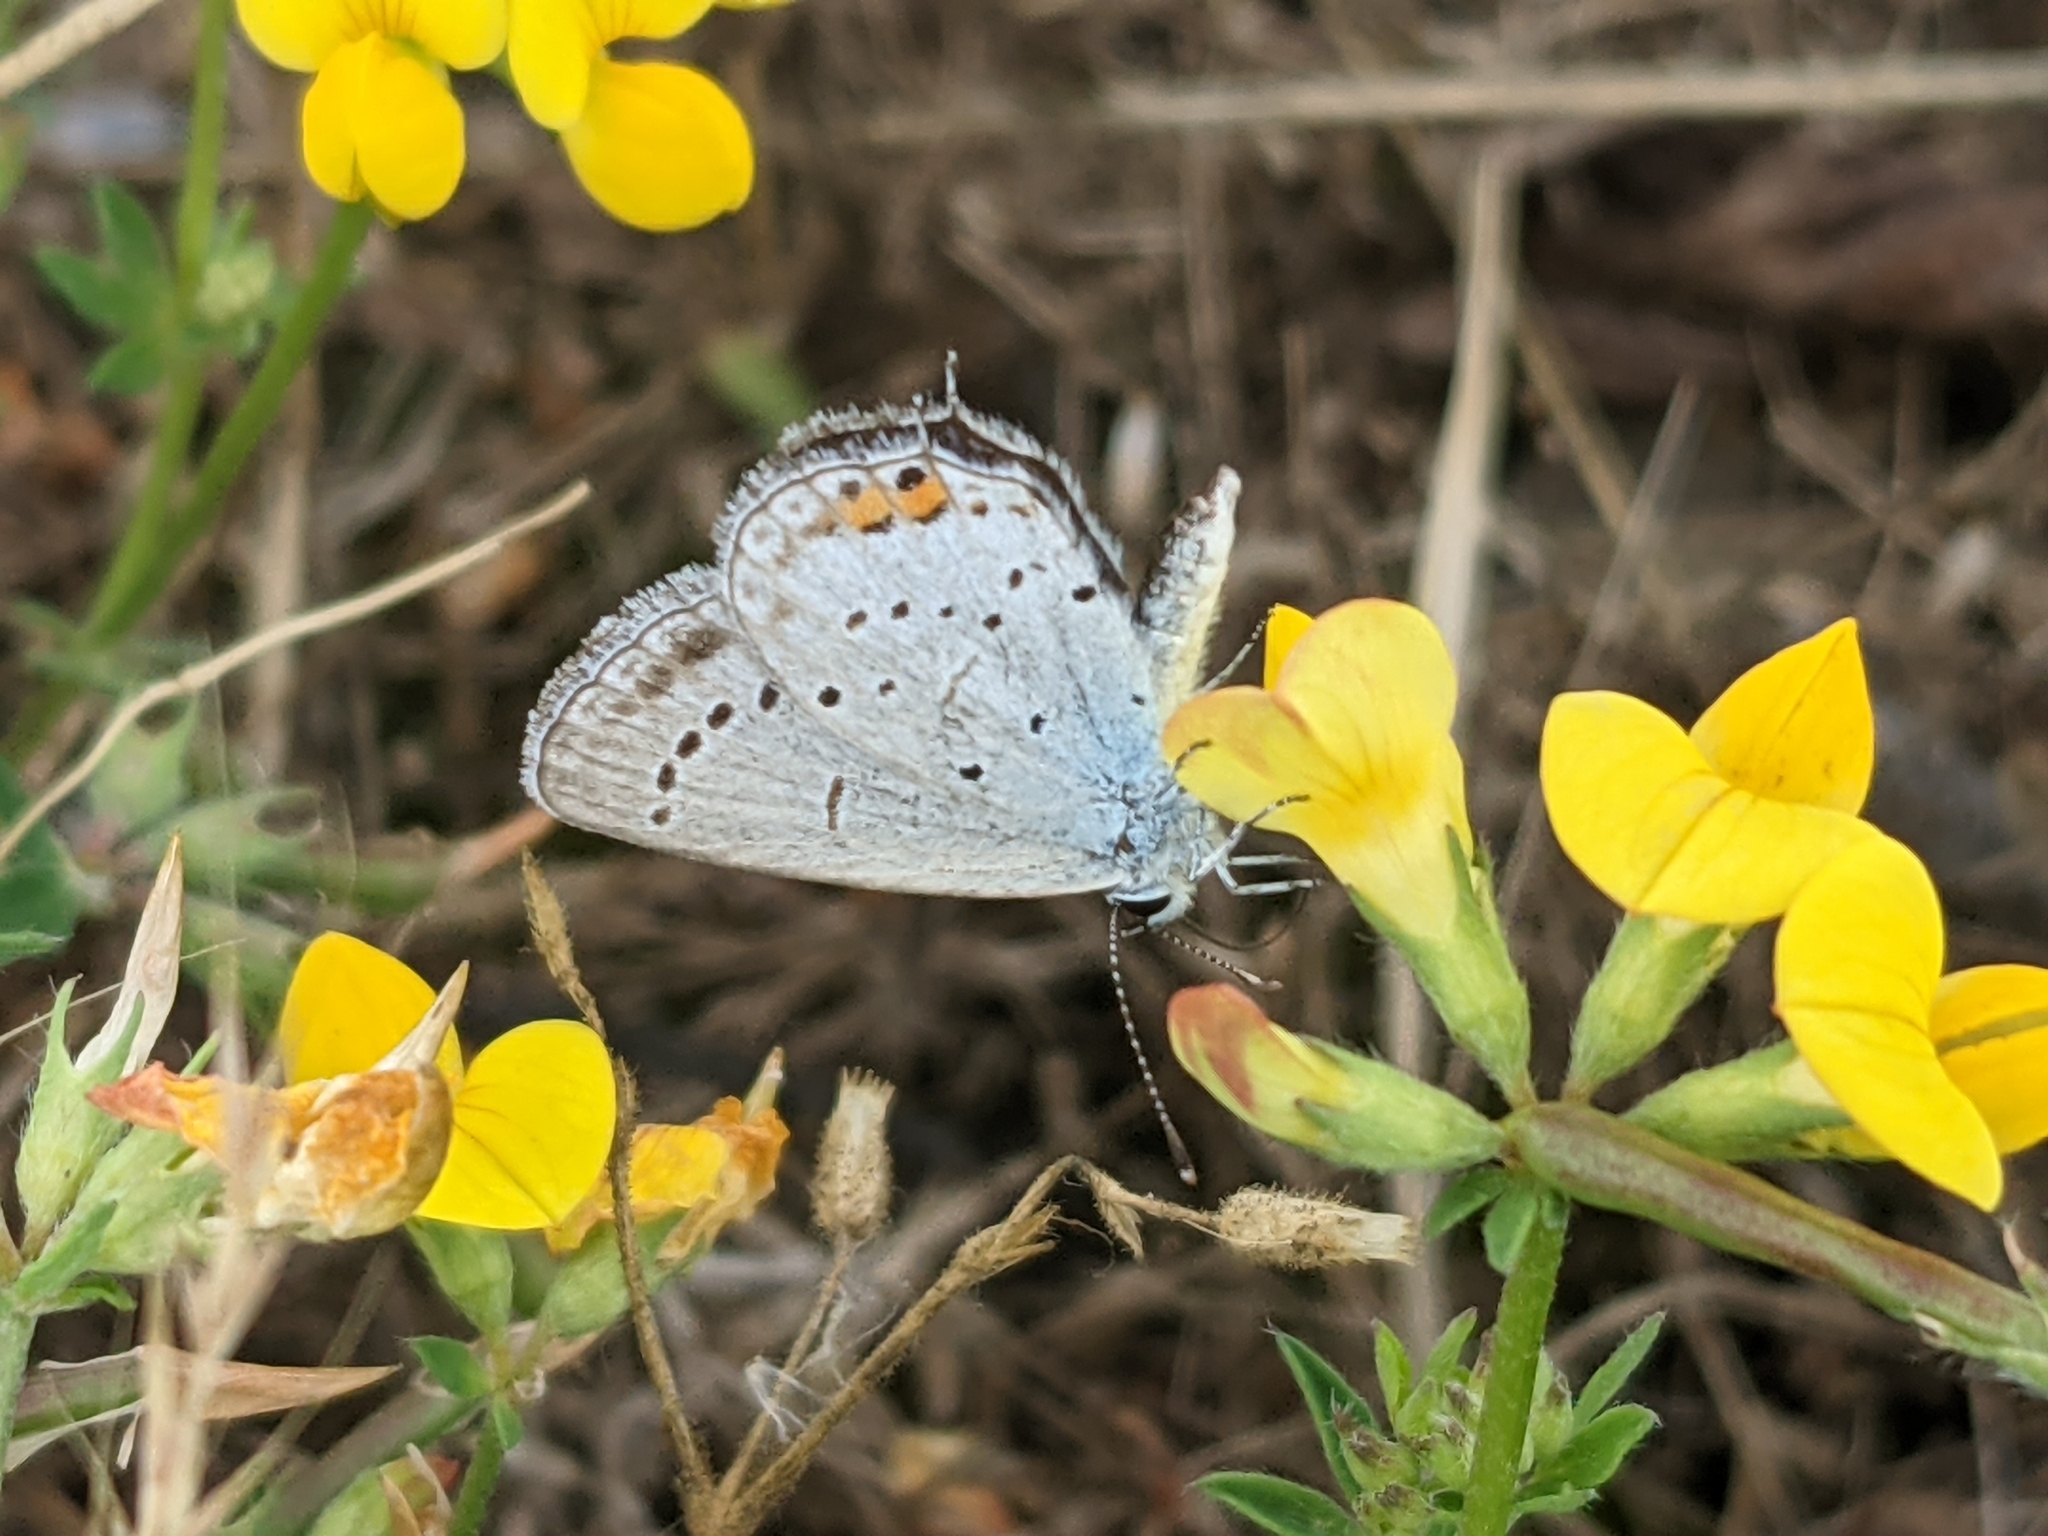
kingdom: Animalia
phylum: Arthropoda
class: Insecta
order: Lepidoptera
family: Lycaenidae
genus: Elkalyce
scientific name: Elkalyce argiades
